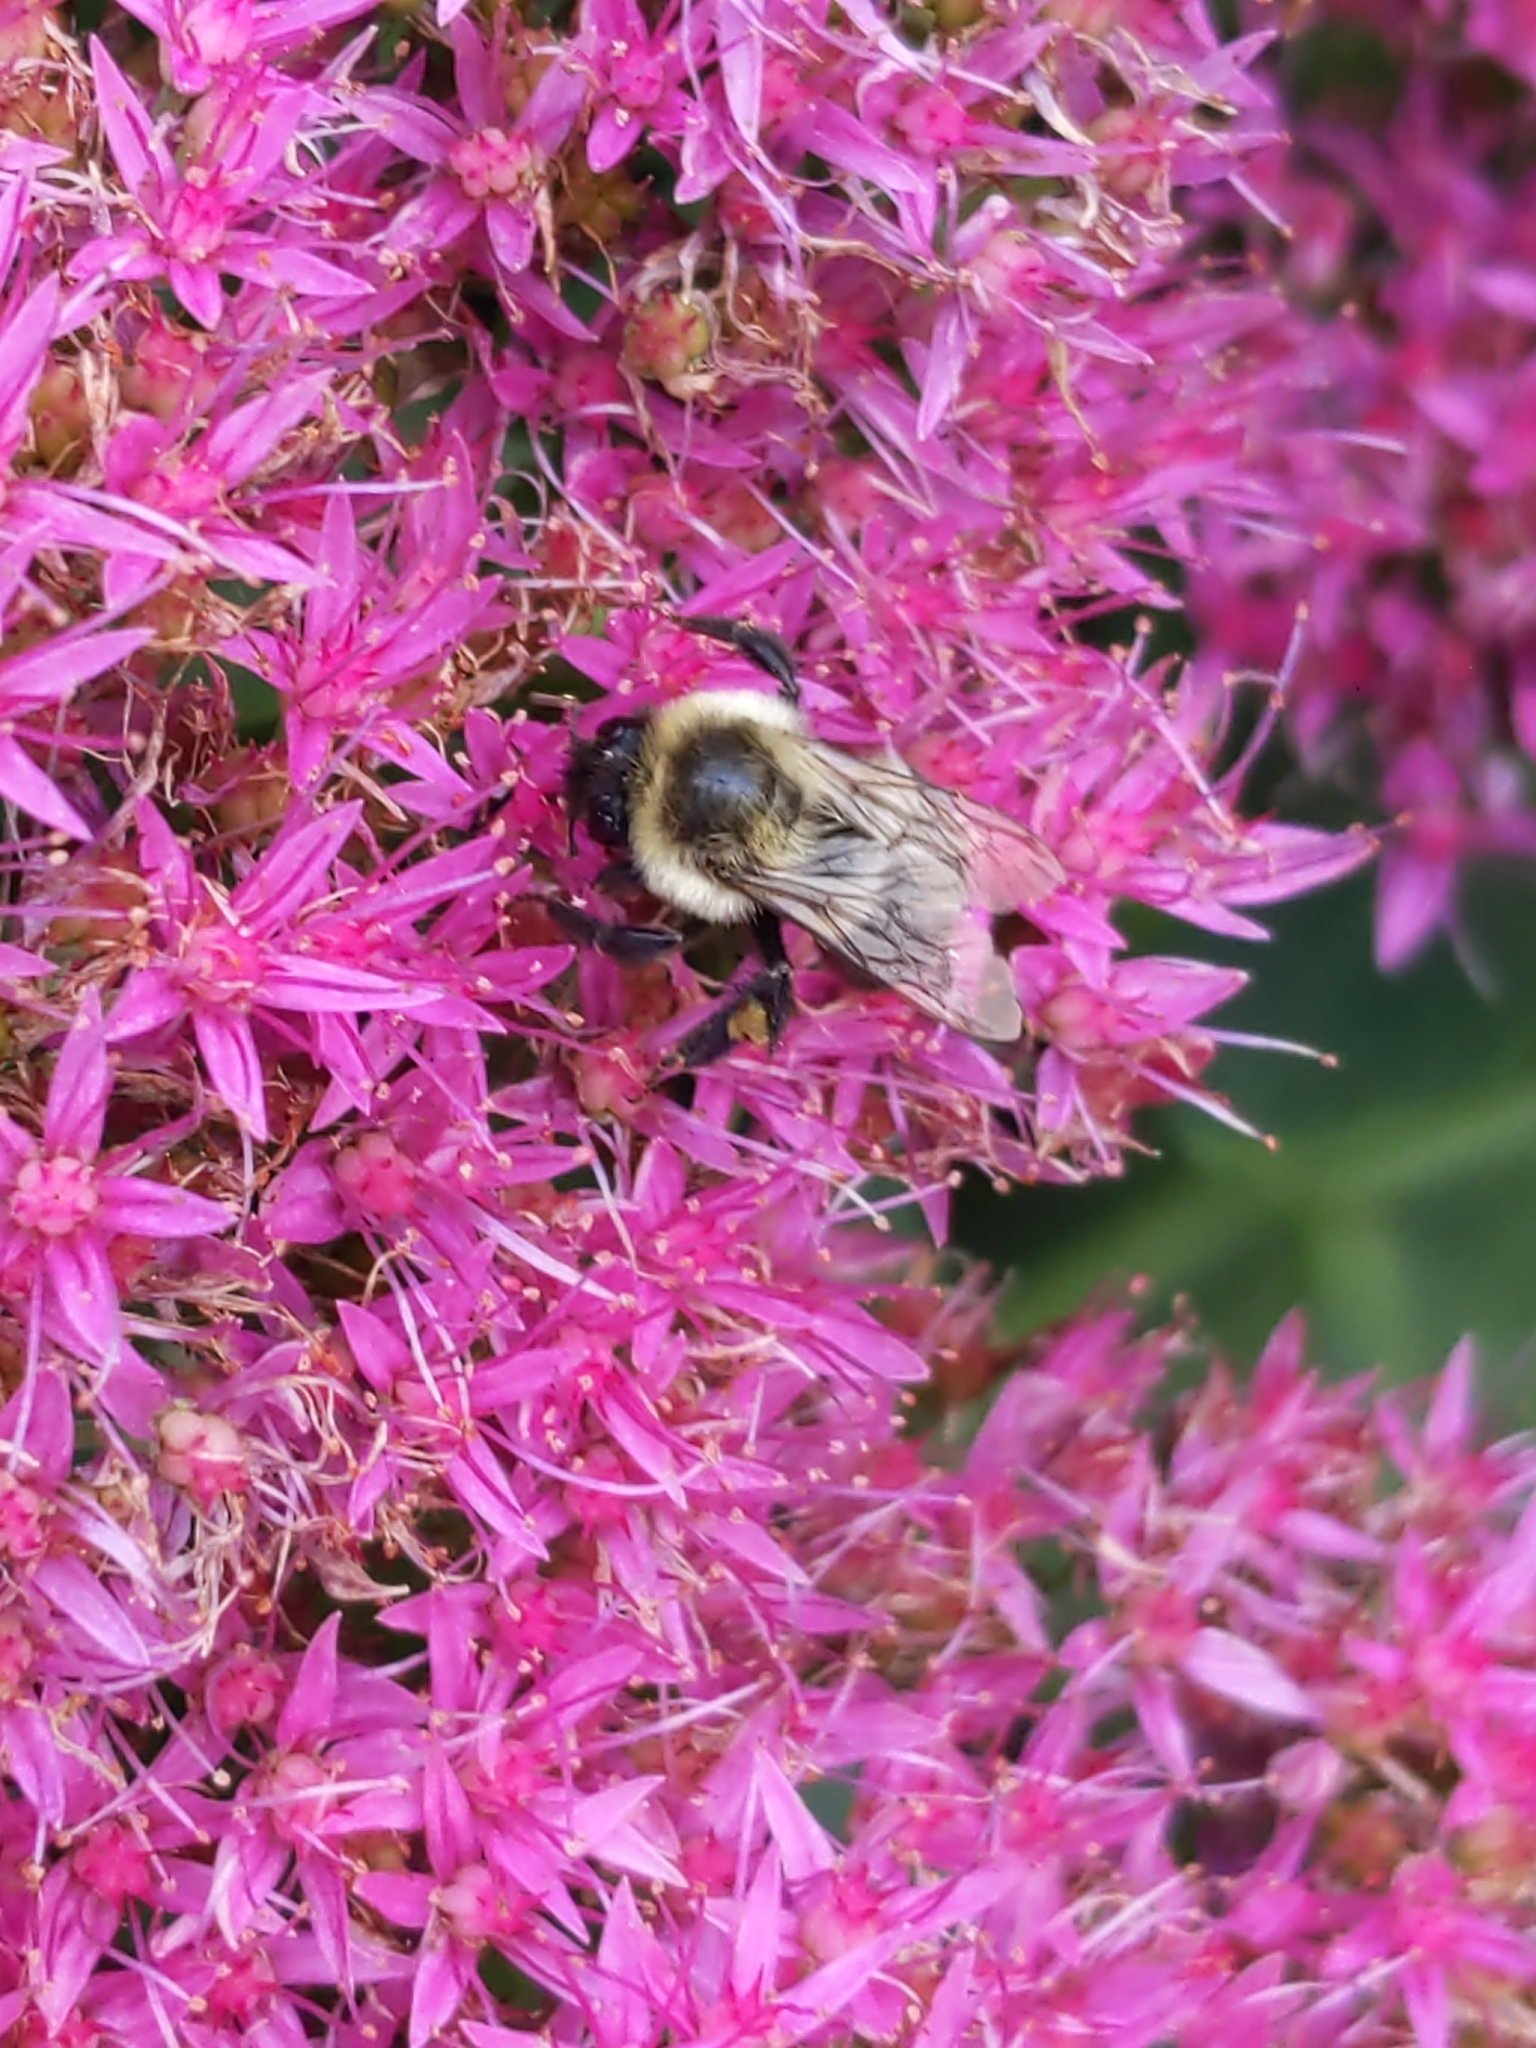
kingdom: Animalia
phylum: Arthropoda
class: Insecta
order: Hymenoptera
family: Apidae
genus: Bombus
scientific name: Bombus impatiens
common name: Common eastern bumble bee
